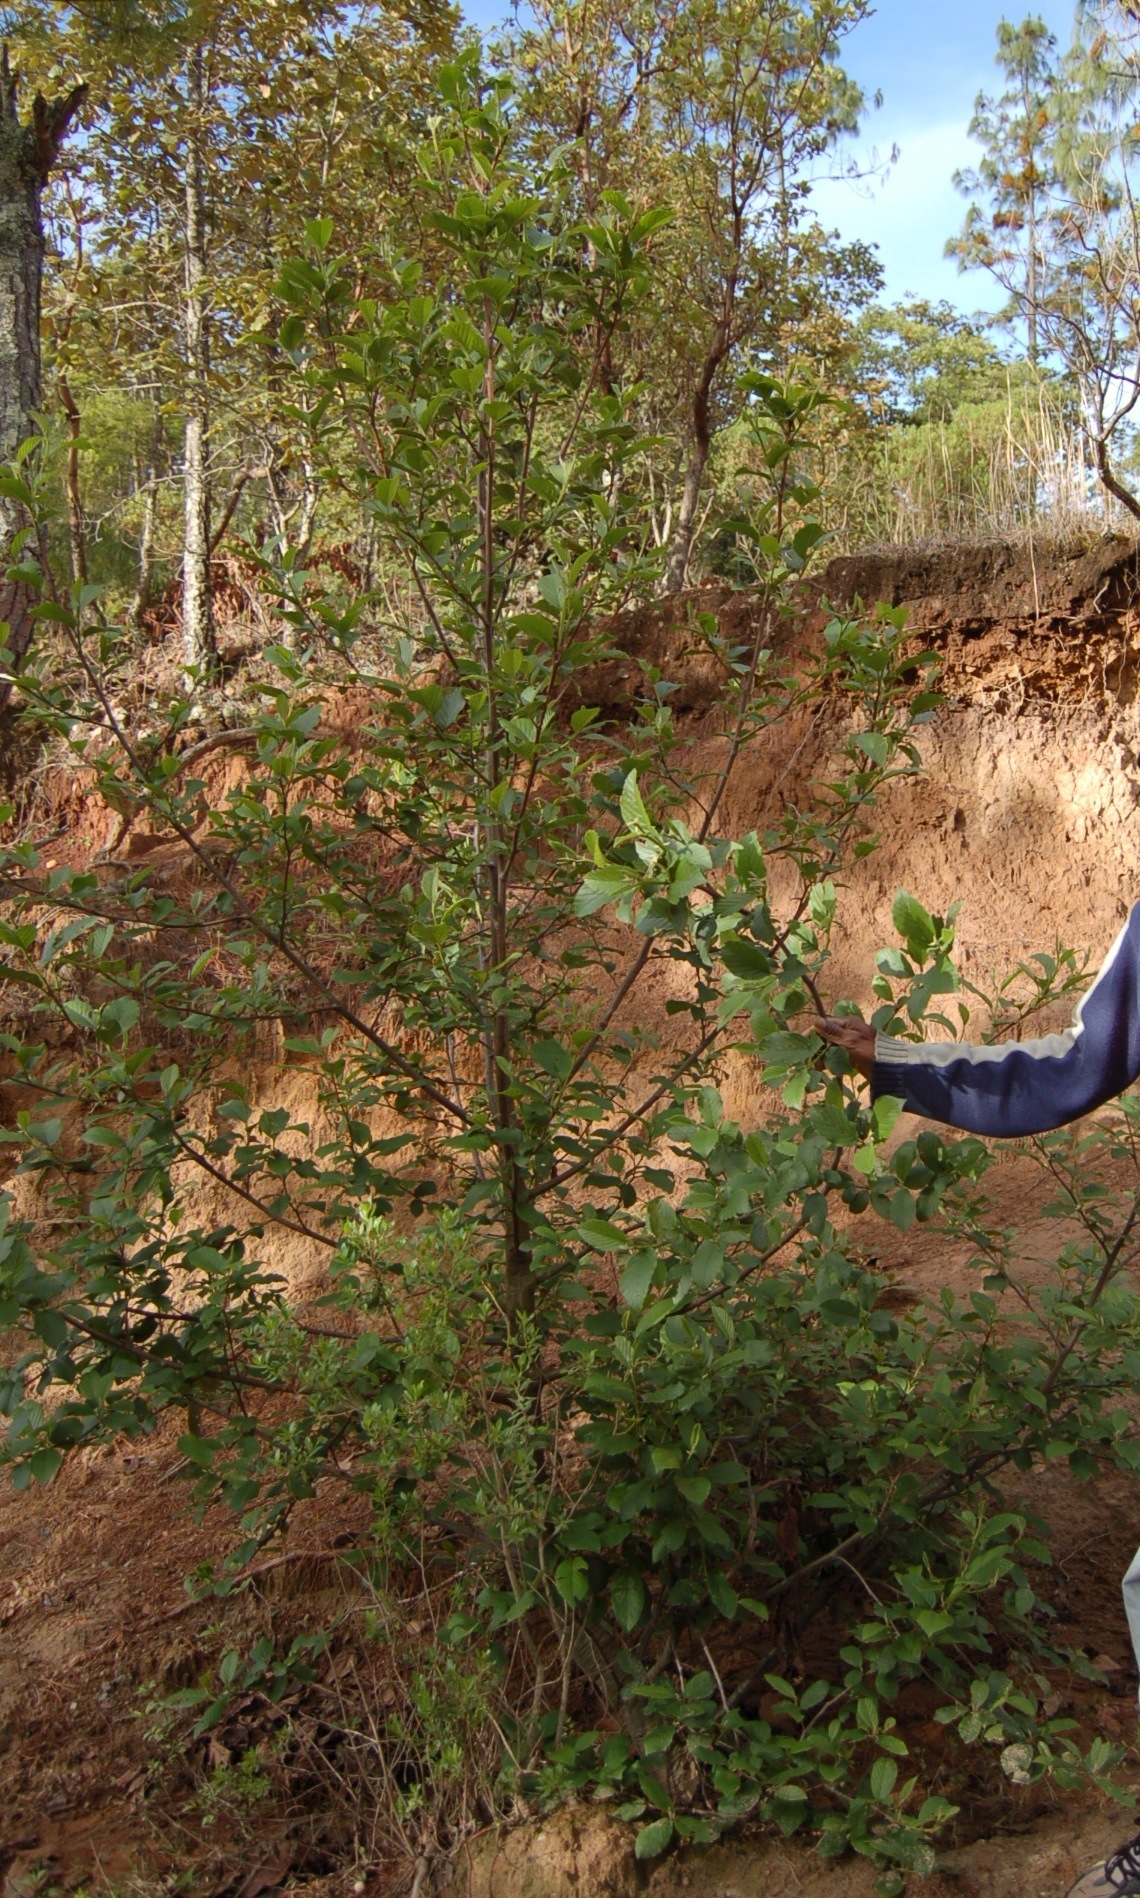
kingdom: Plantae
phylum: Tracheophyta
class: Magnoliopsida
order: Fagales
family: Betulaceae
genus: Alnus
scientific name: Alnus acuminata
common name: Alder
